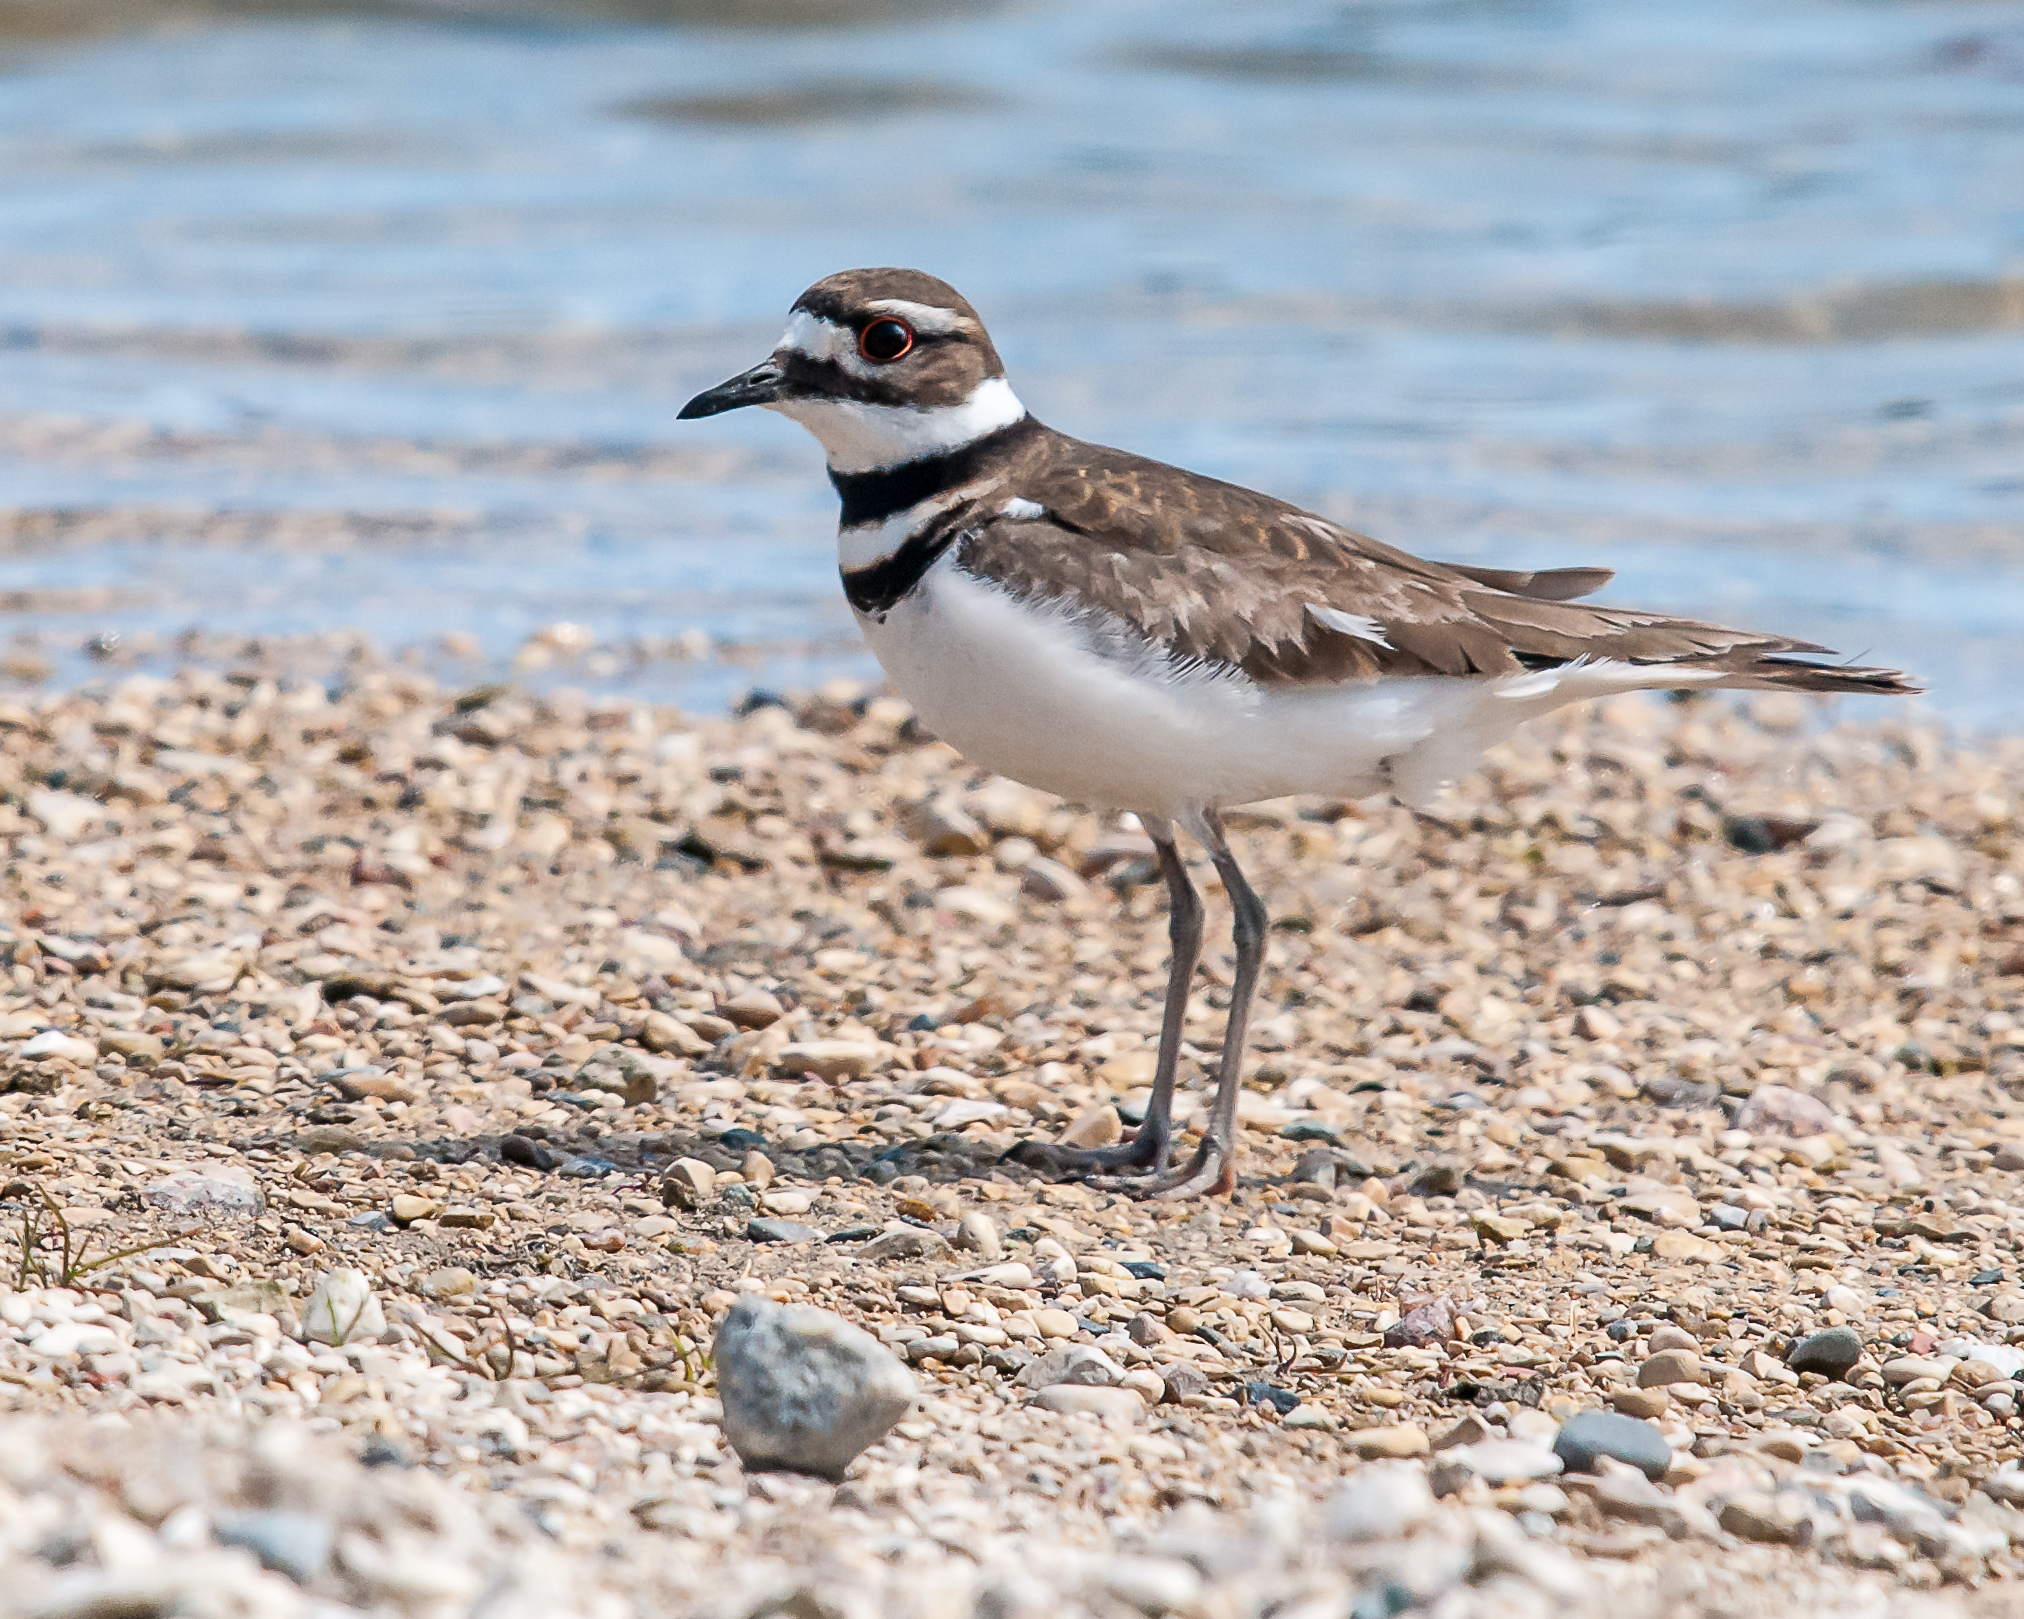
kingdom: Animalia
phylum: Chordata
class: Aves
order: Charadriiformes
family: Charadriidae
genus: Charadrius
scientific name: Charadrius vociferus
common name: Killdeer
